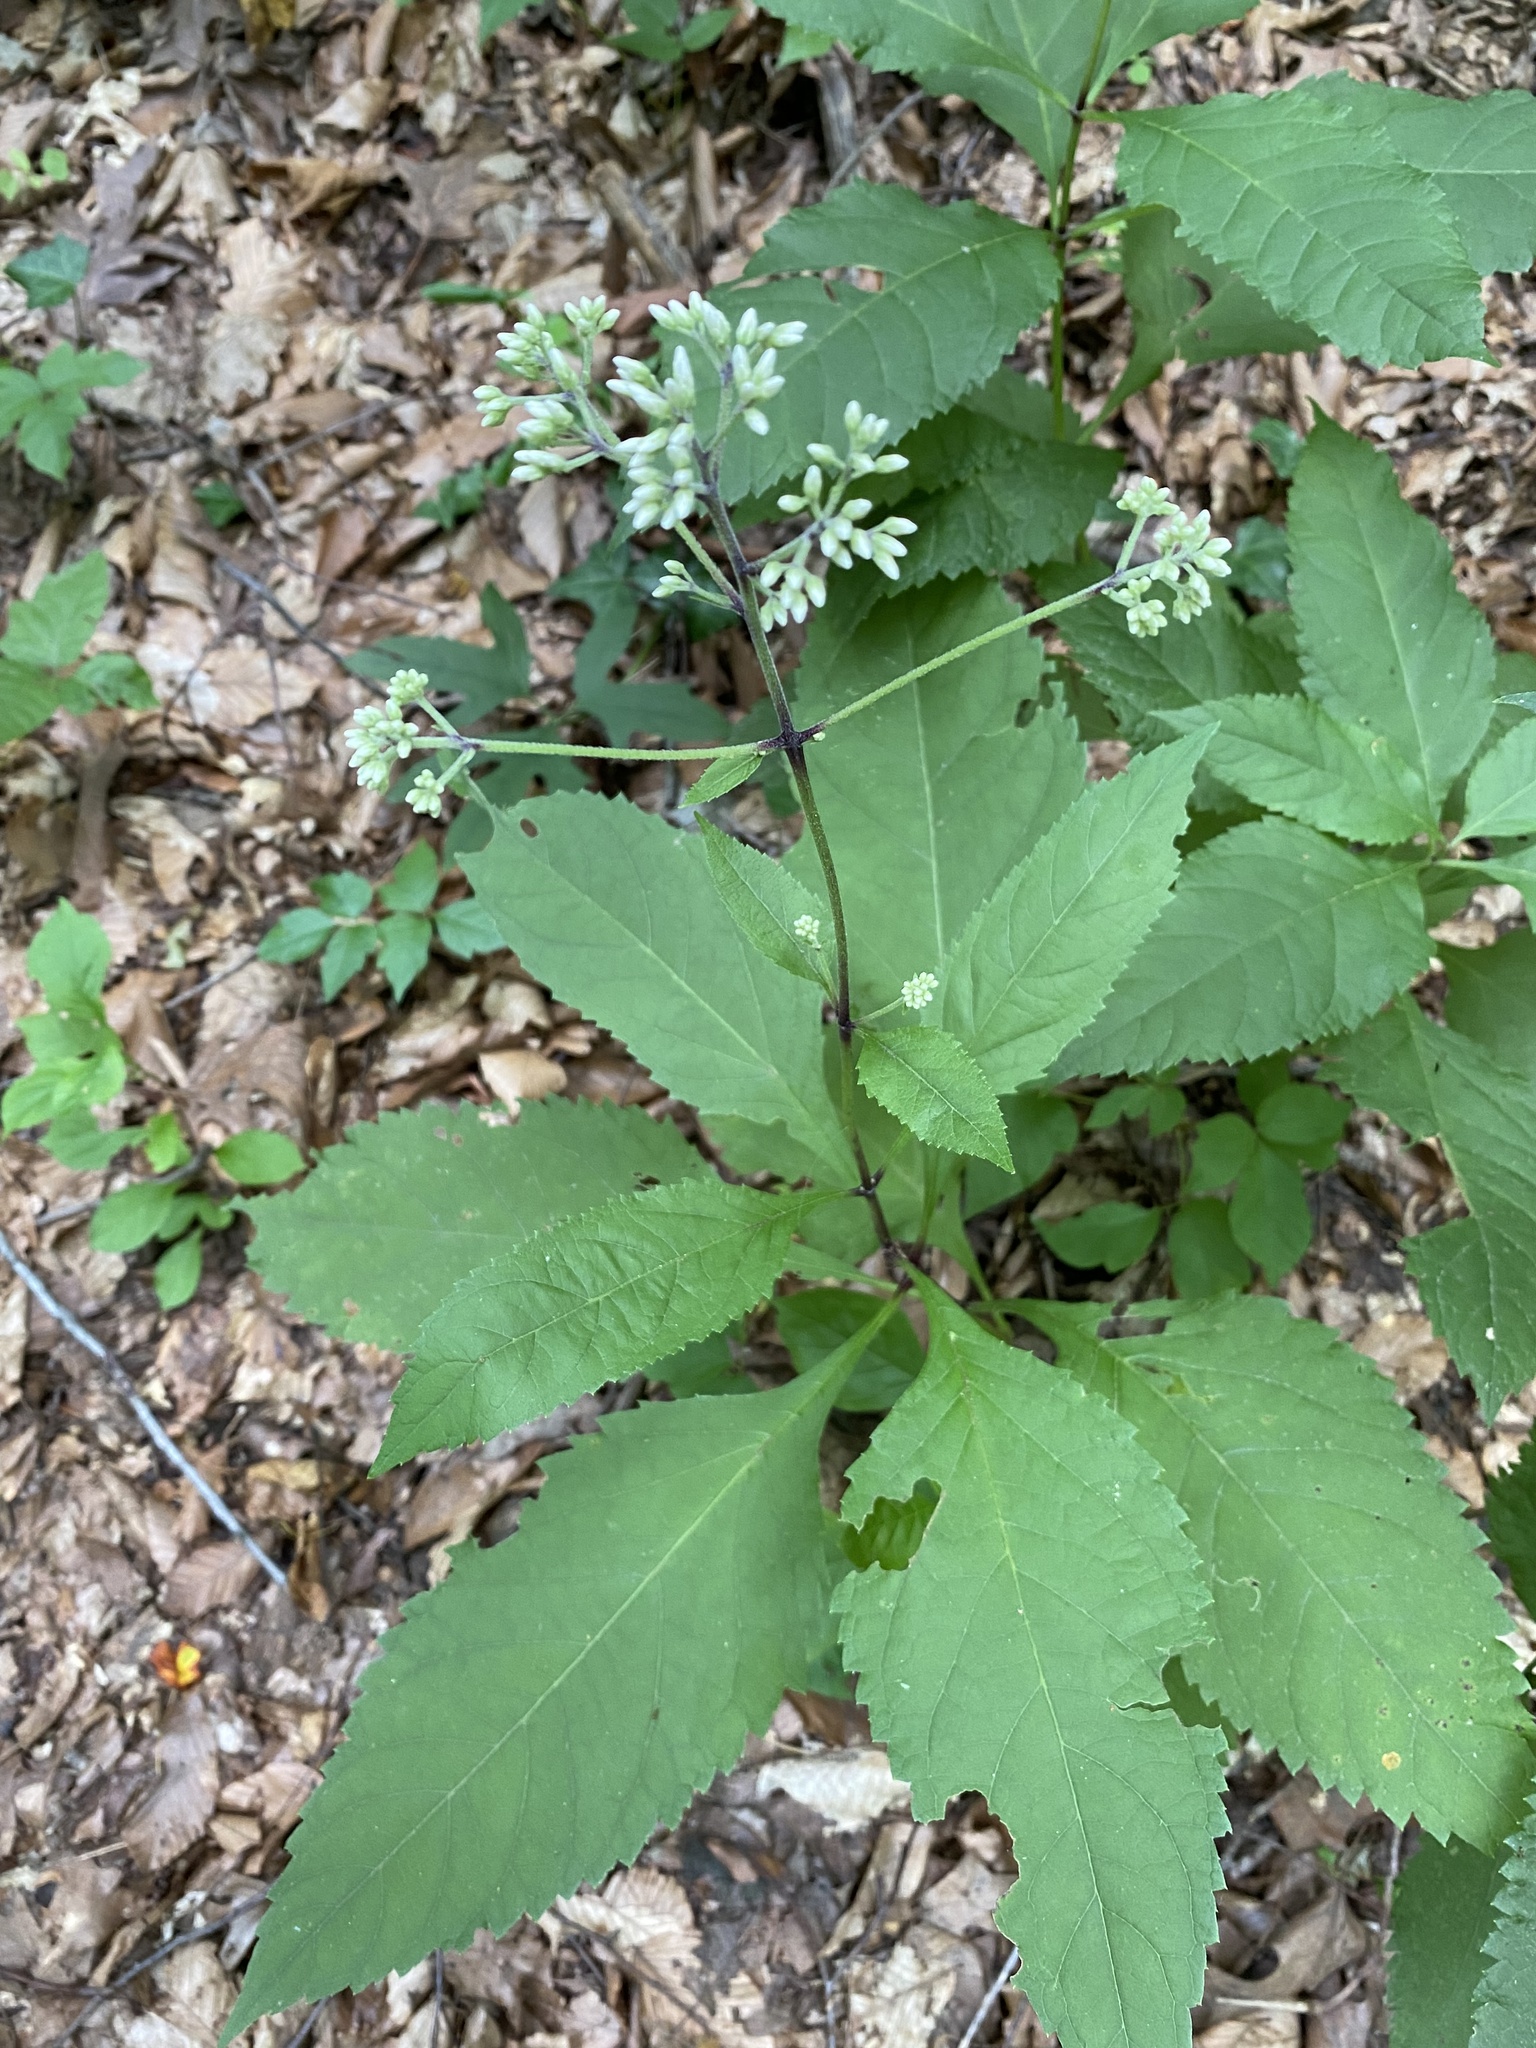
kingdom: Plantae
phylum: Tracheophyta
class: Magnoliopsida
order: Asterales
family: Asteraceae
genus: Eutrochium
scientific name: Eutrochium purpureum
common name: Gravelroot
